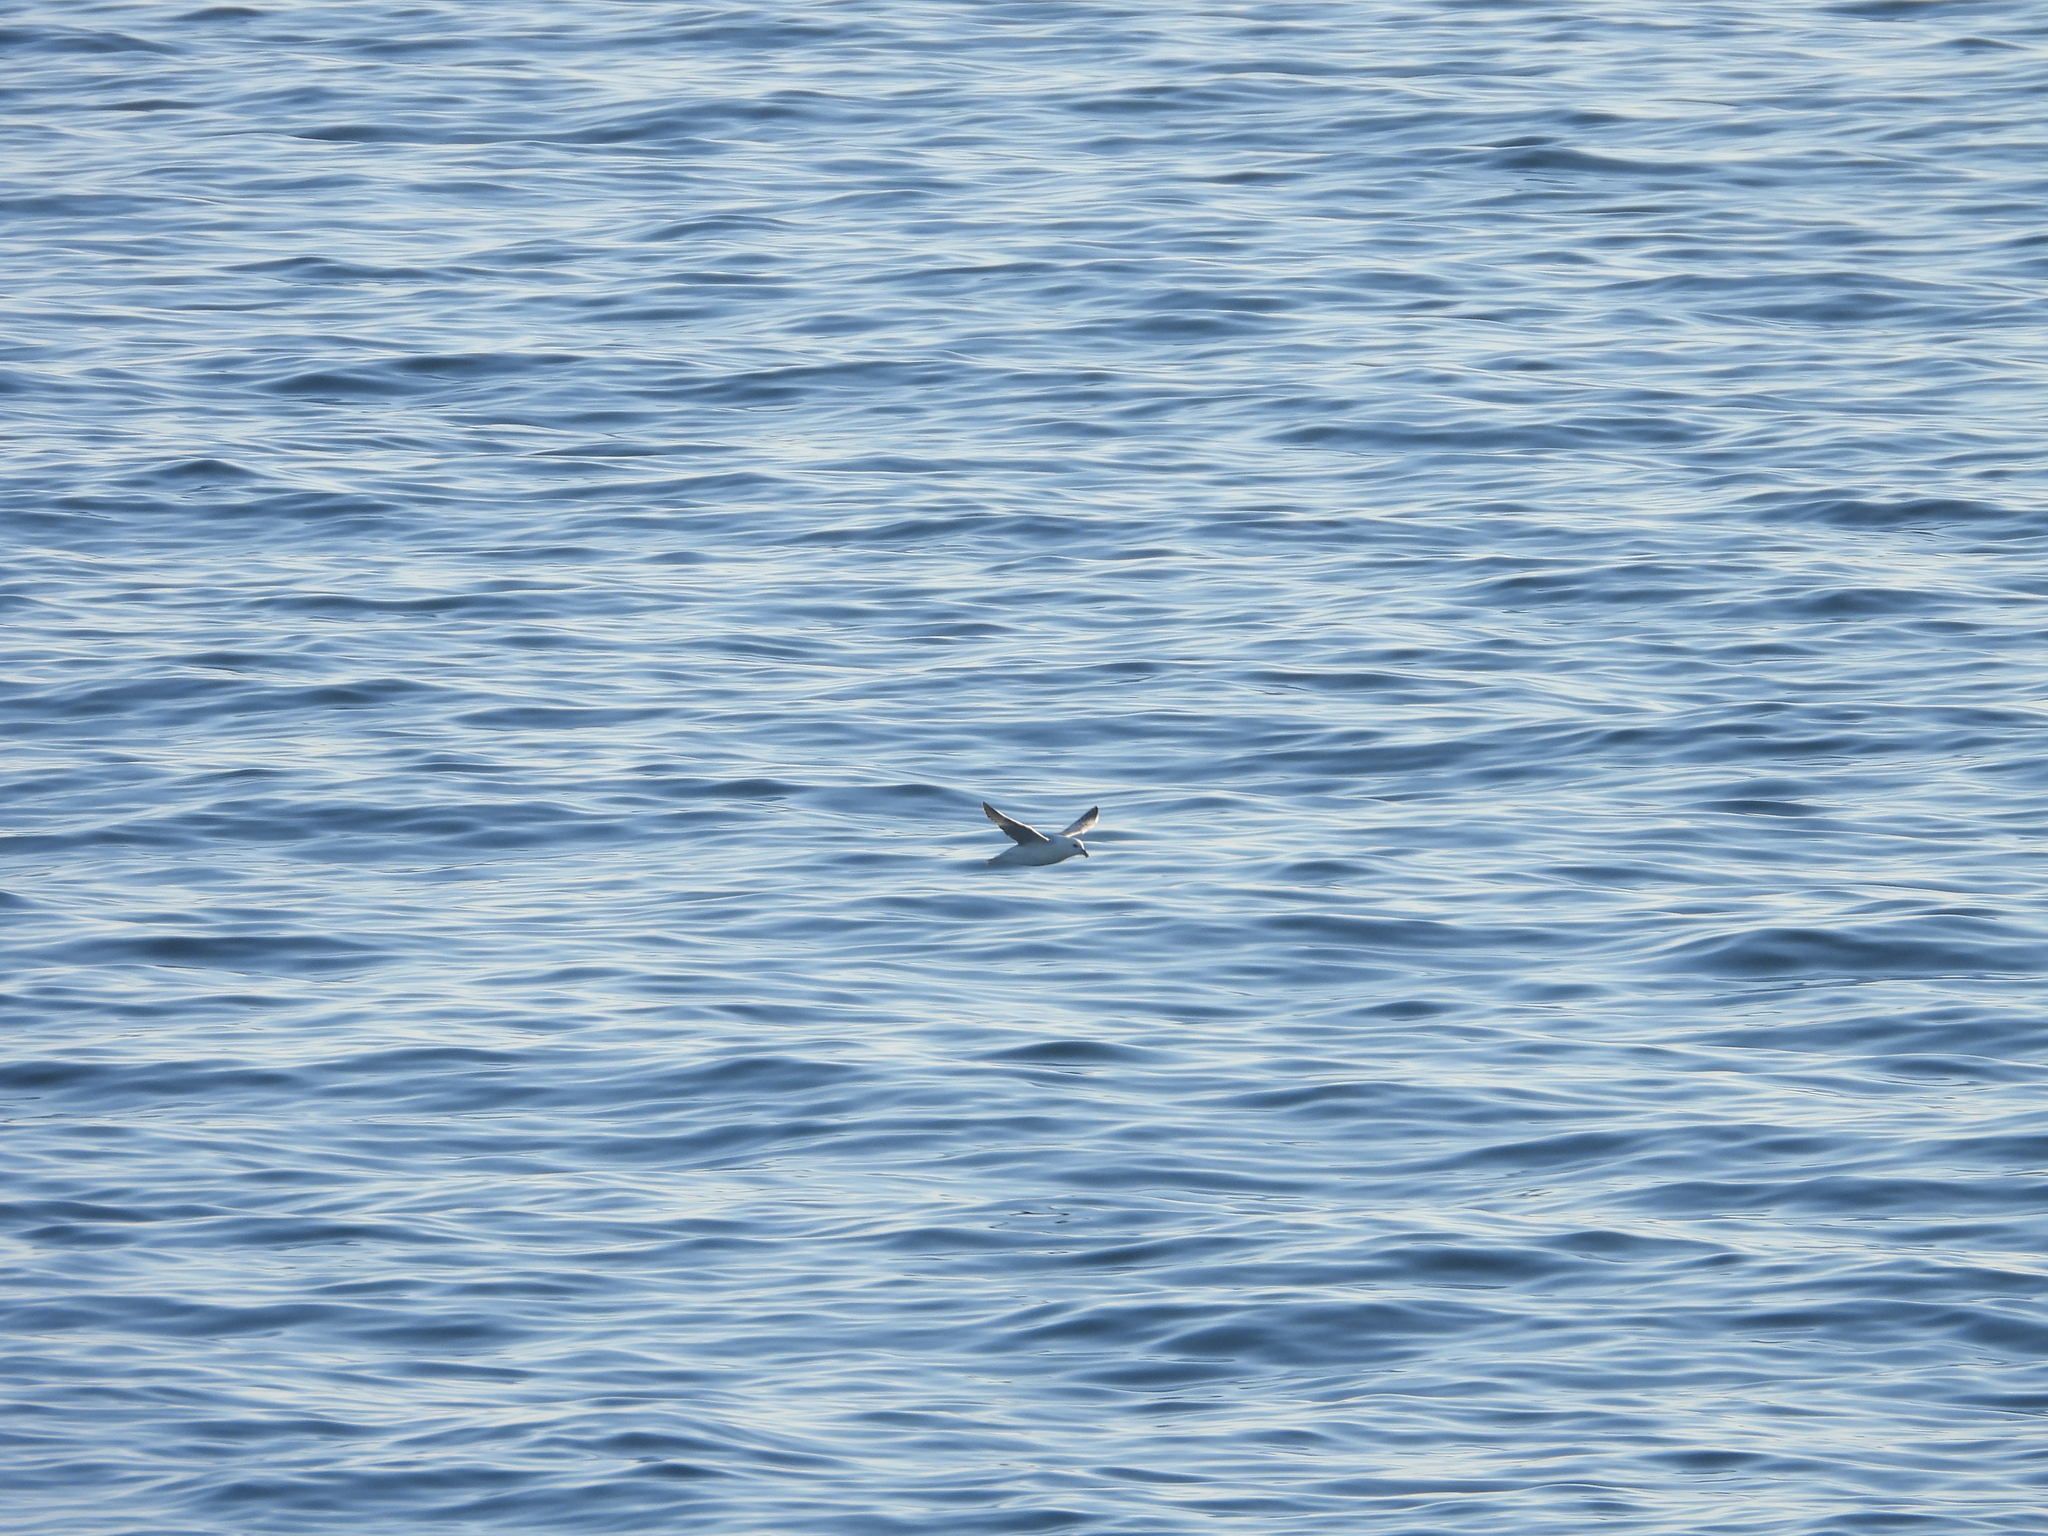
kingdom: Animalia
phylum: Chordata
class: Aves
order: Procellariiformes
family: Procellariidae
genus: Fulmarus
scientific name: Fulmarus glacialis
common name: Northern fulmar
